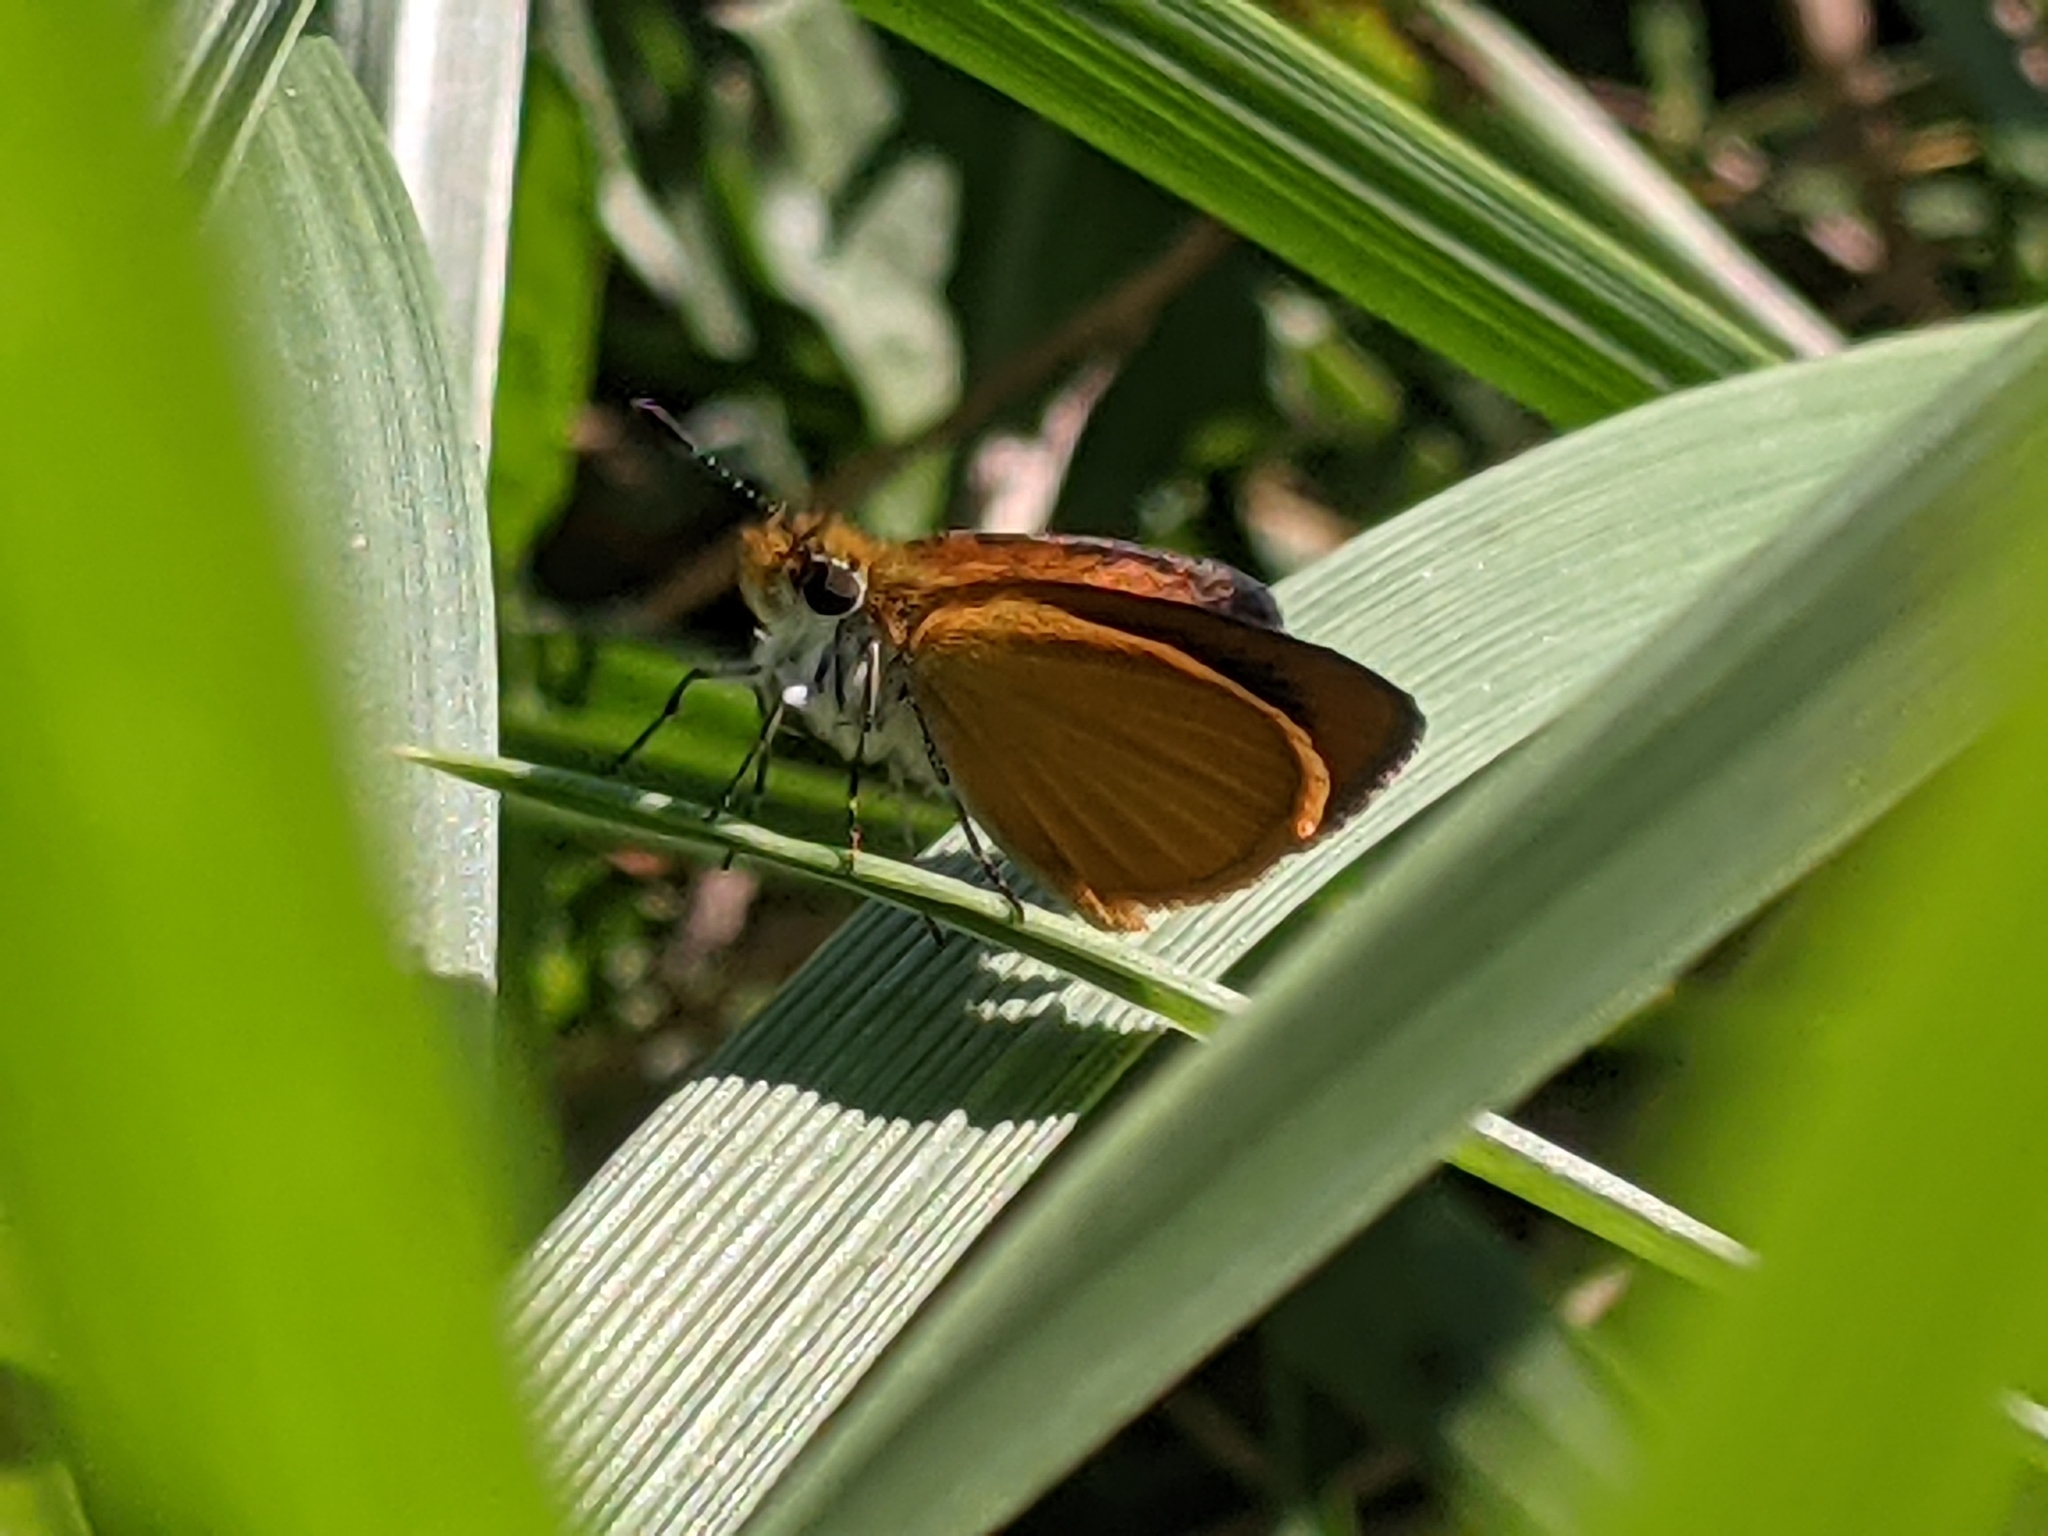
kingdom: Animalia
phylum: Arthropoda
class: Insecta
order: Lepidoptera
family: Hesperiidae
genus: Ancyloxypha
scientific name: Ancyloxypha numitor
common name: Least skipper
